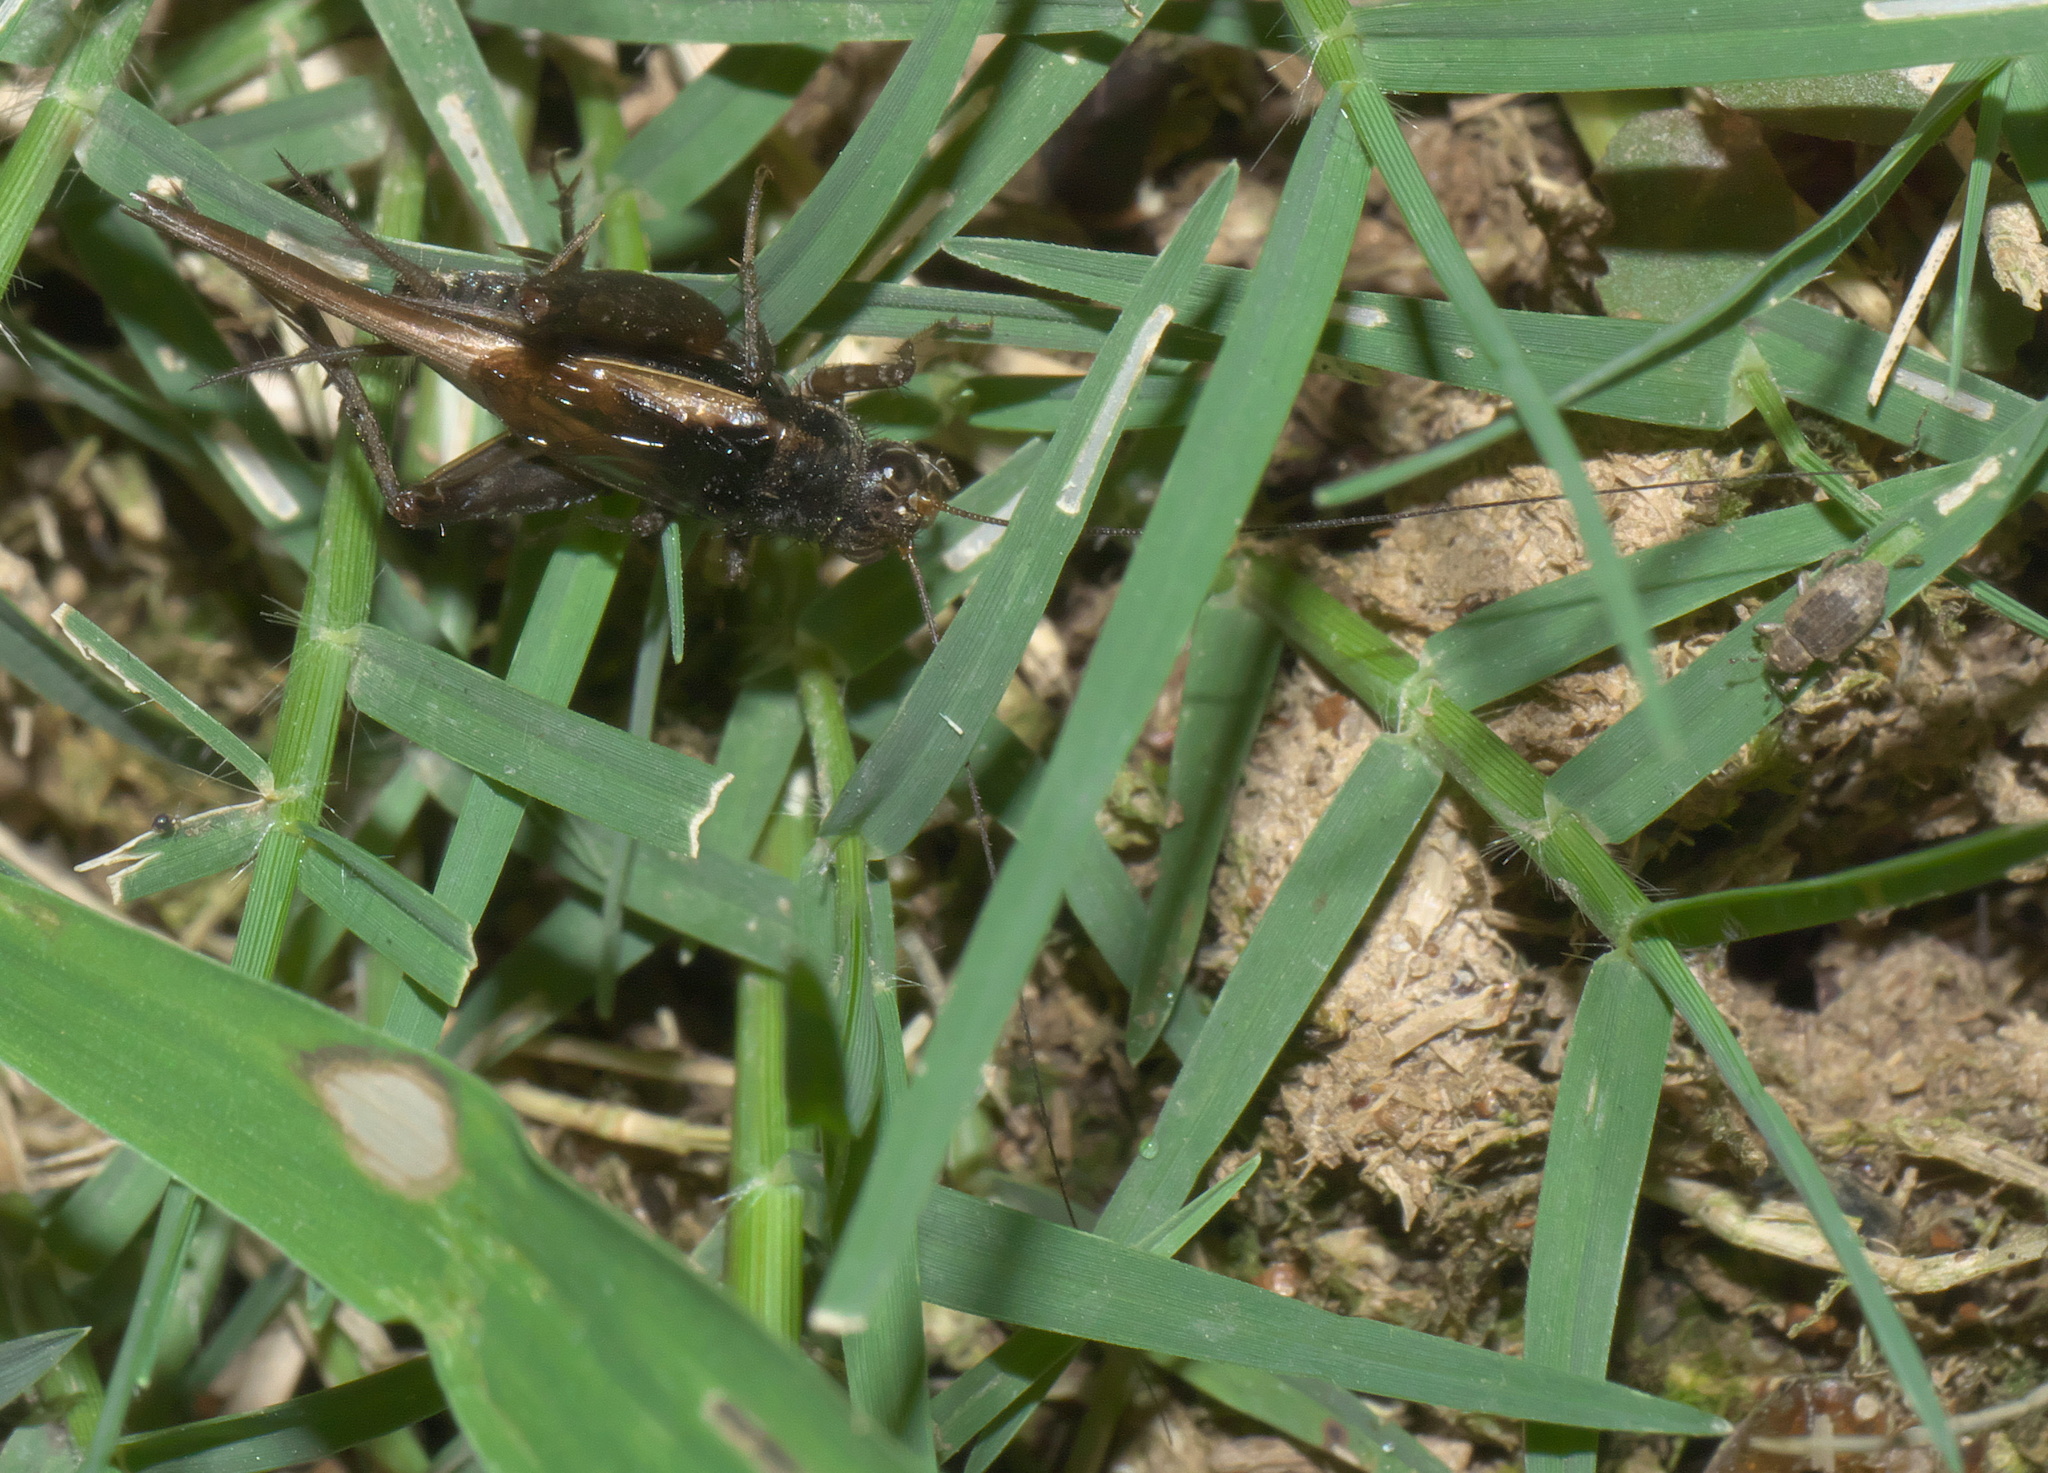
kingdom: Animalia
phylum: Arthropoda
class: Insecta
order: Orthoptera
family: Trigonidiidae
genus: Allonemobius
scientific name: Allonemobius socius
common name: Southern ground cricket
